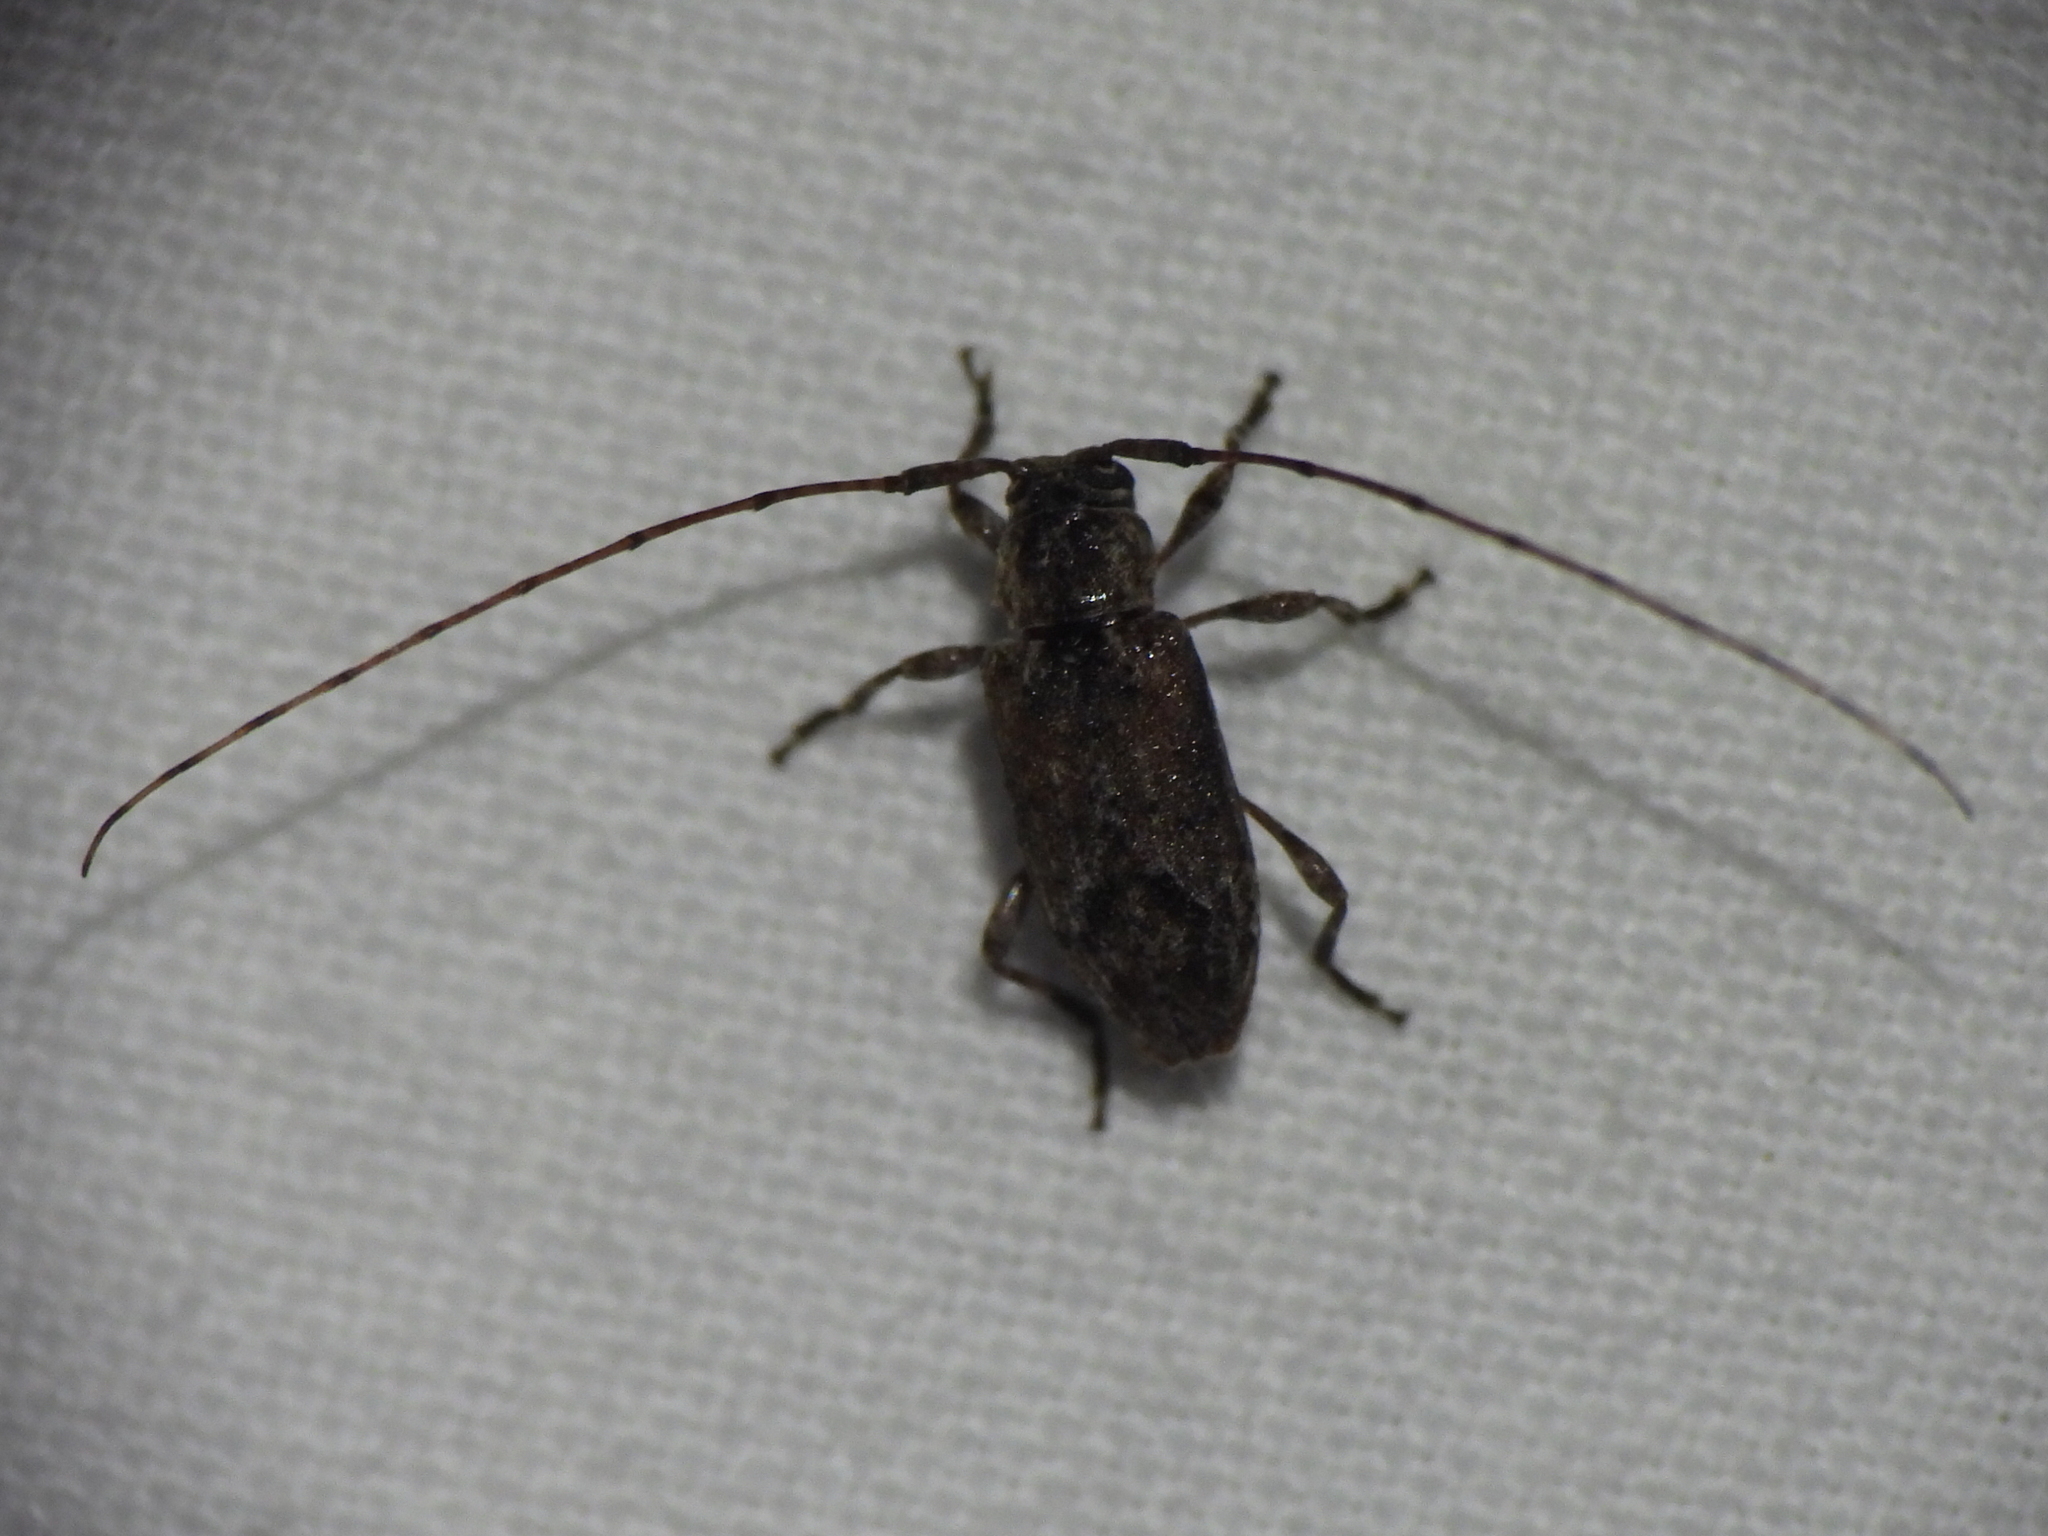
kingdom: Animalia
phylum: Arthropoda
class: Insecta
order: Coleoptera
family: Cerambycidae
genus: Sternidius
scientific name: Sternidius alpha
